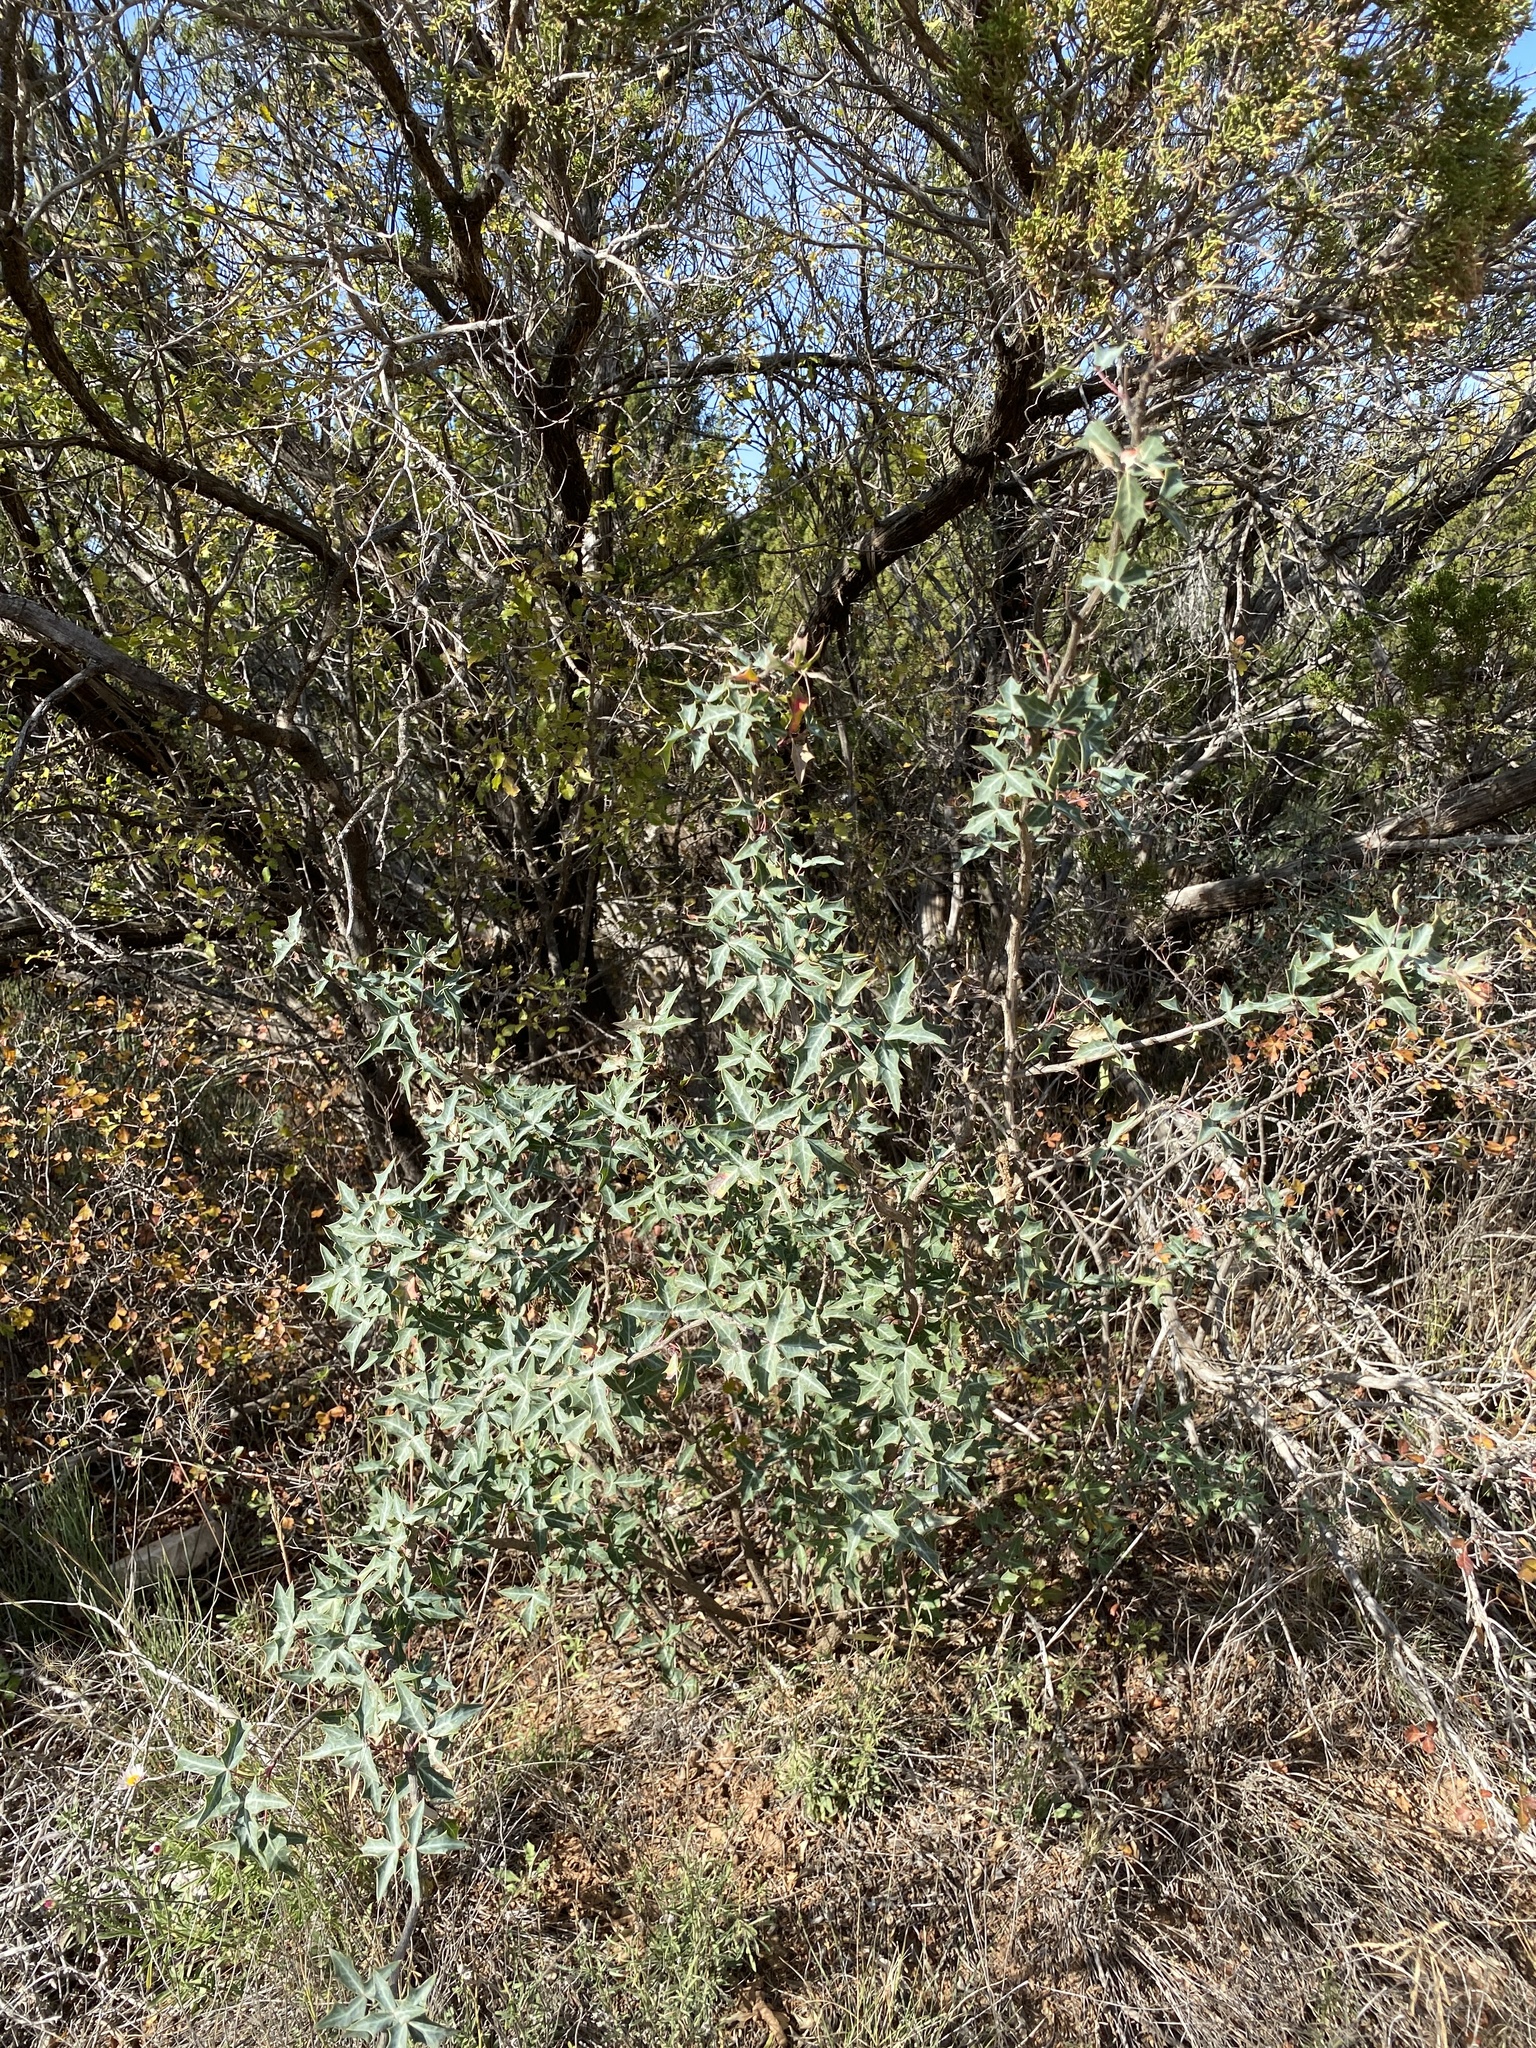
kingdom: Plantae
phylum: Tracheophyta
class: Magnoliopsida
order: Ranunculales
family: Berberidaceae
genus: Alloberberis
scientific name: Alloberberis trifoliolata
